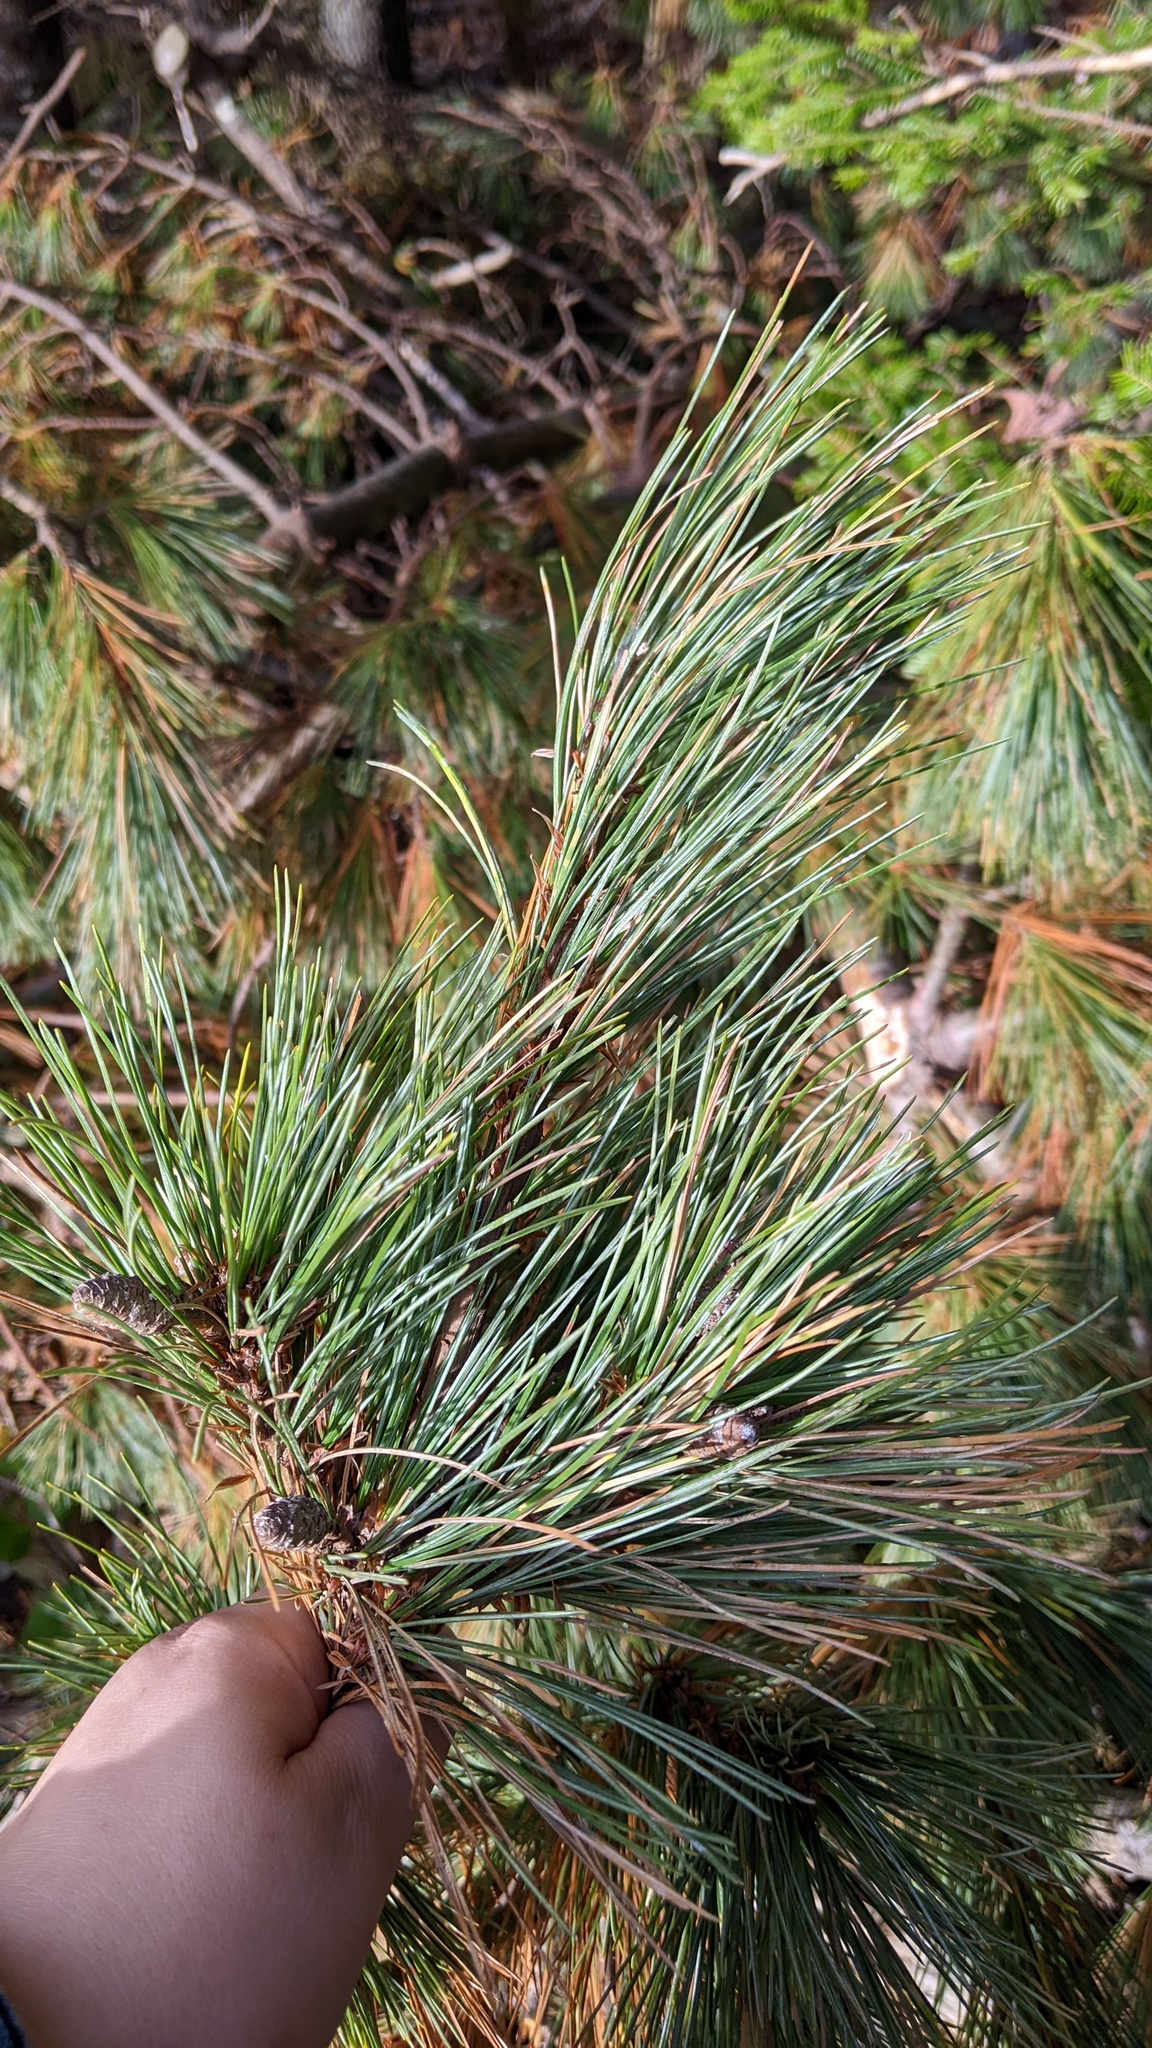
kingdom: Plantae
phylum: Tracheophyta
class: Pinopsida
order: Pinales
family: Pinaceae
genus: Pinus
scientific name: Pinus strobus
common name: Weymouth pine
